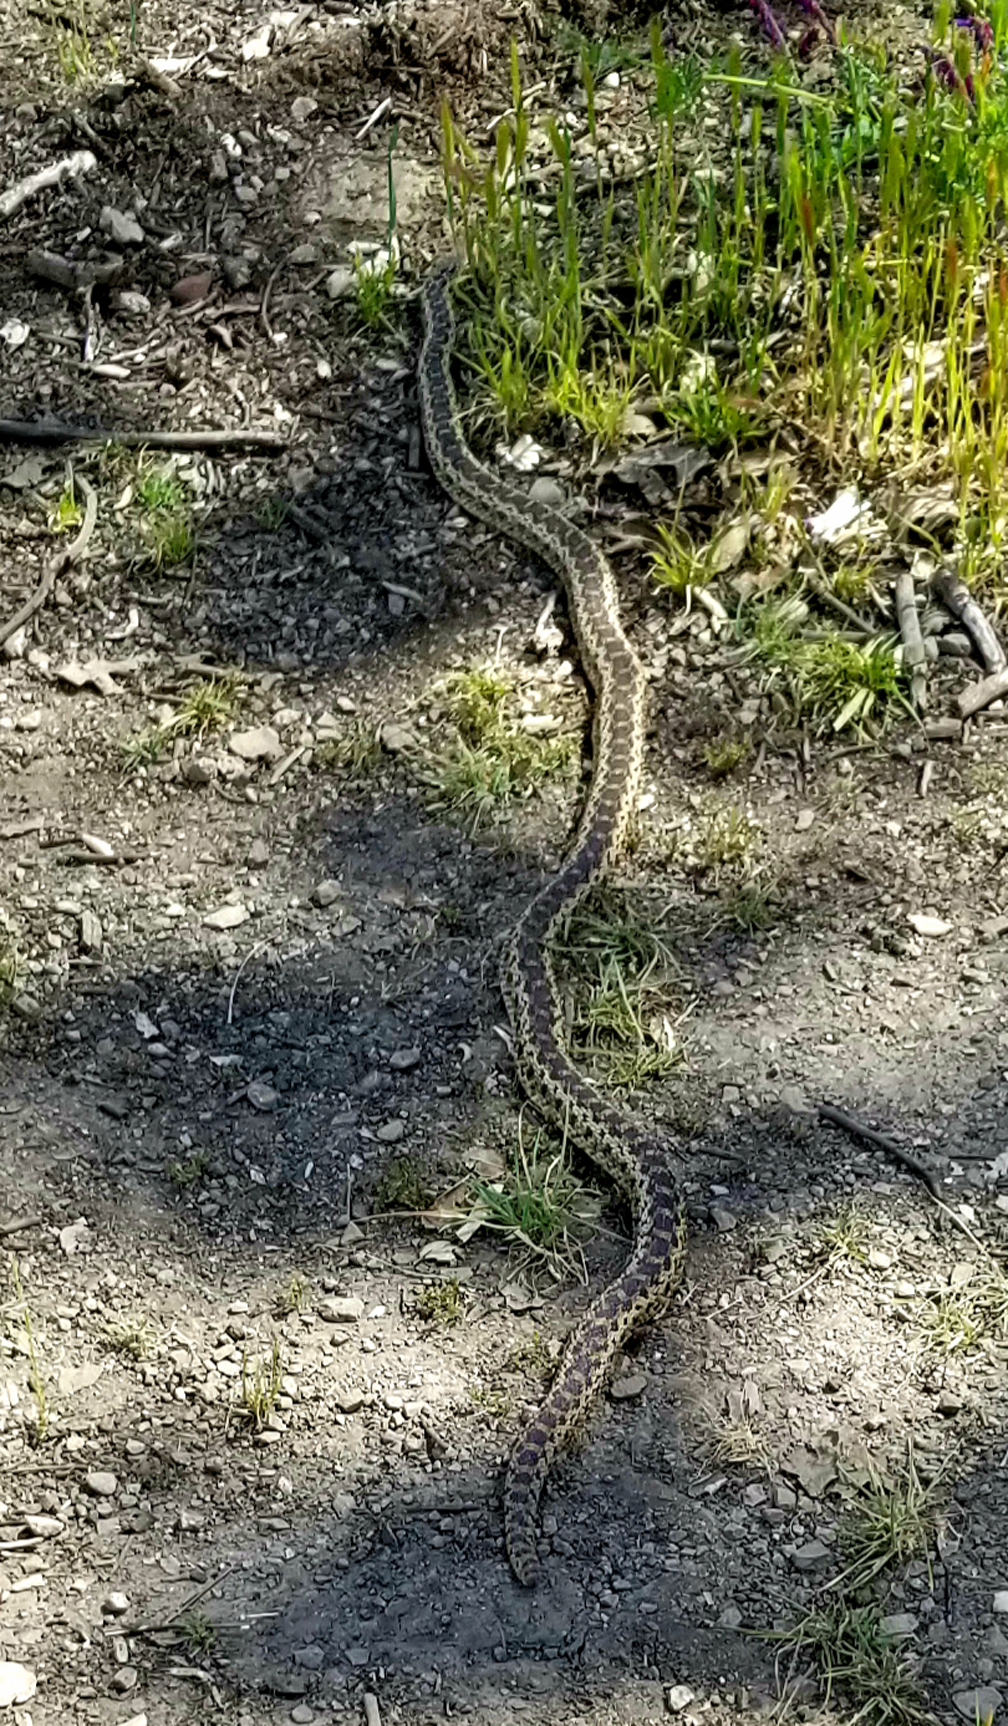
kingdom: Animalia
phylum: Chordata
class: Squamata
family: Colubridae
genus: Pituophis
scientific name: Pituophis catenifer
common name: Gopher snake
